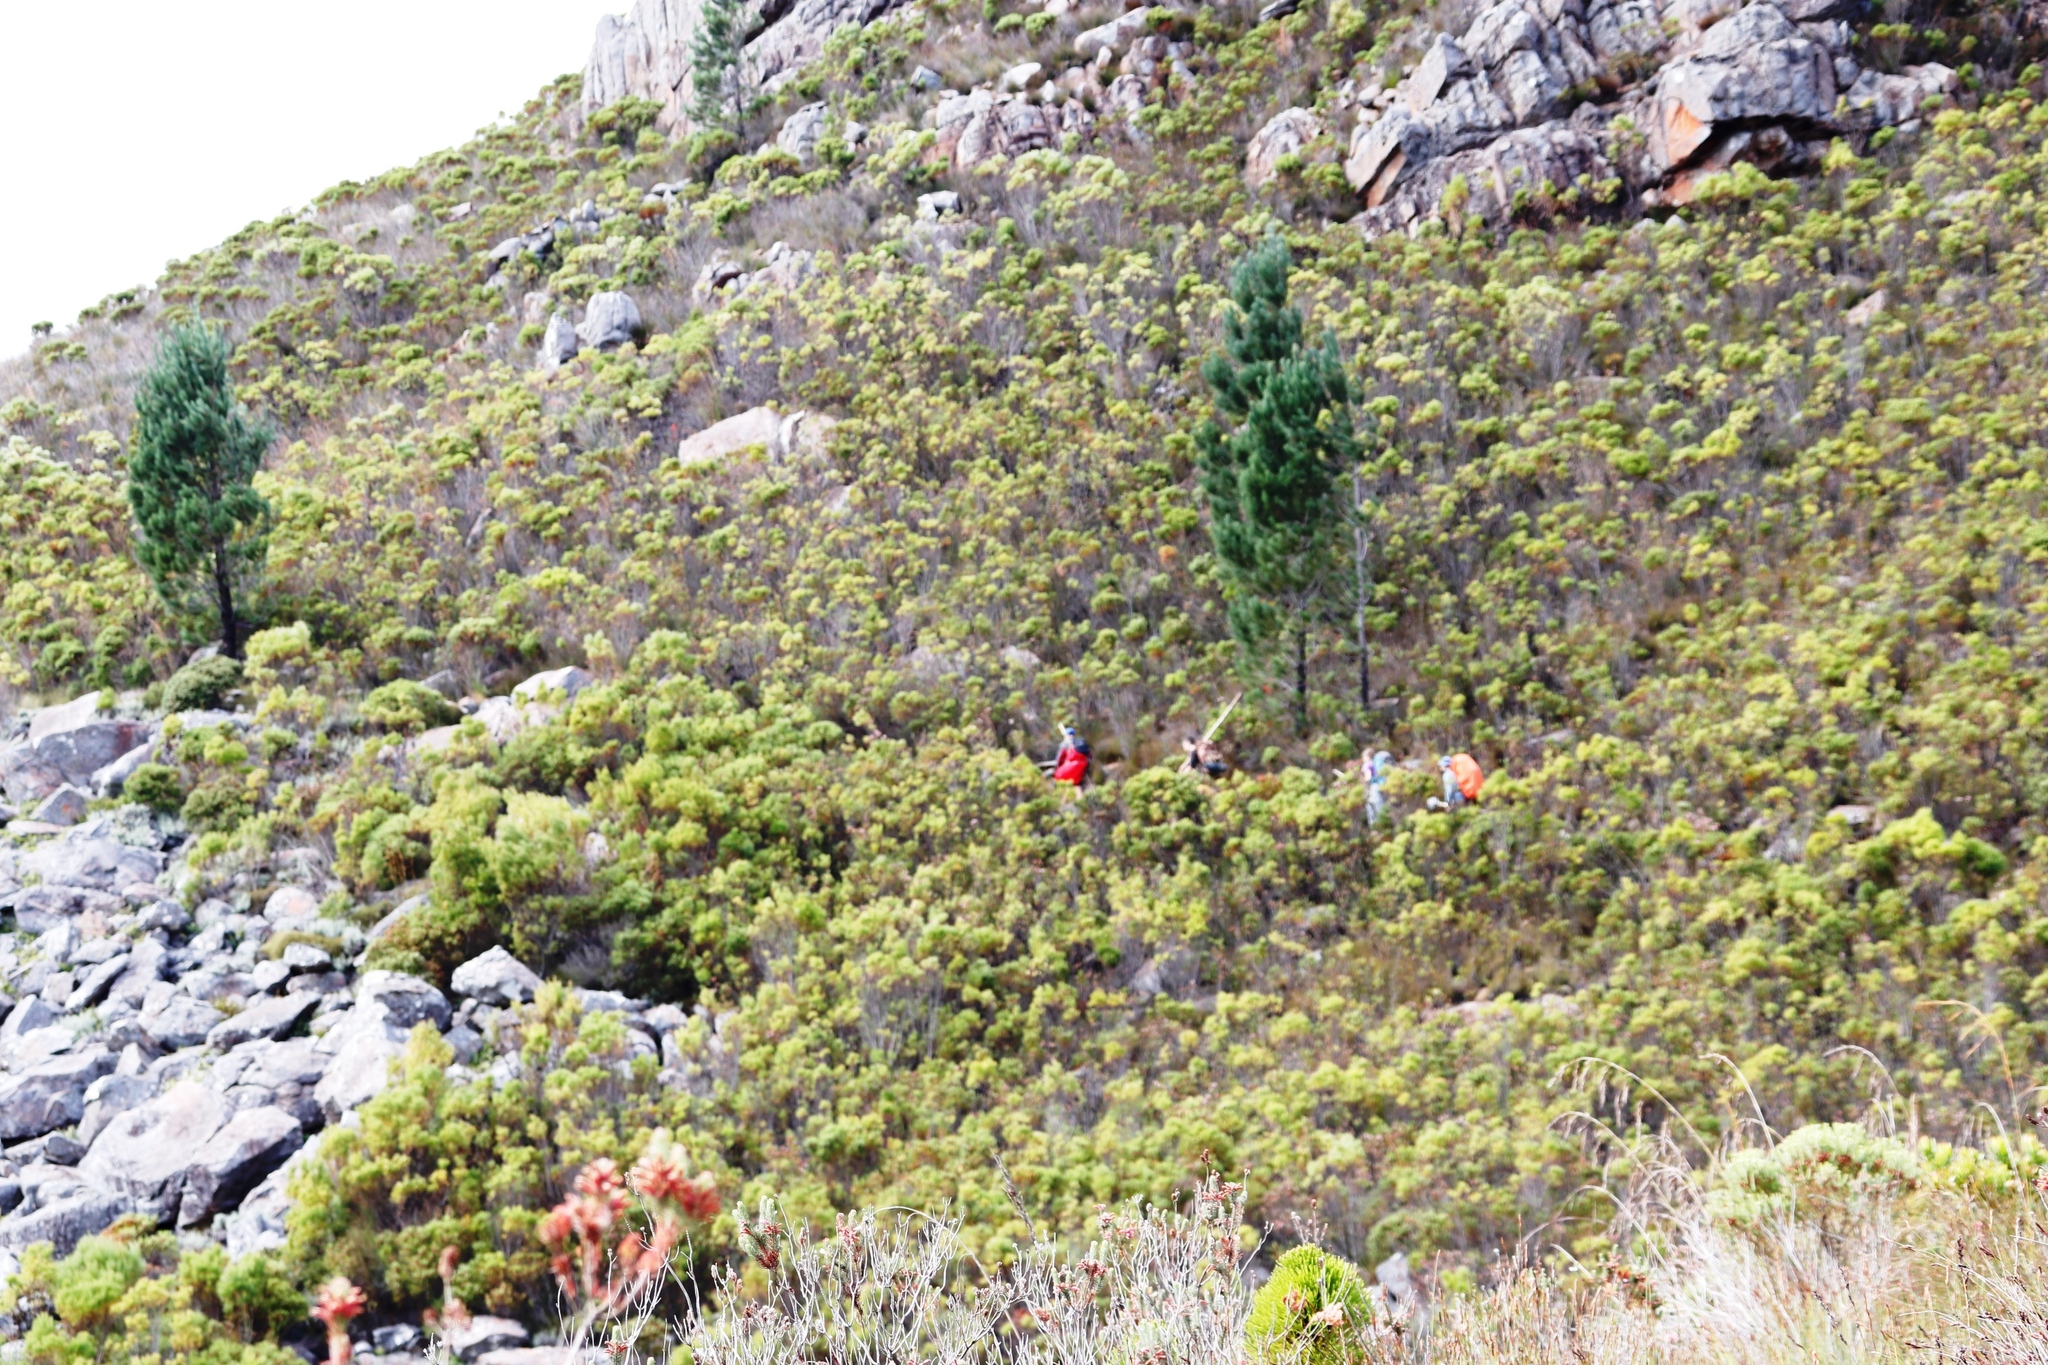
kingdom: Plantae
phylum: Tracheophyta
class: Pinopsida
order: Pinales
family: Pinaceae
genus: Pinus
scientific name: Pinus radiata
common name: Monterey pine
